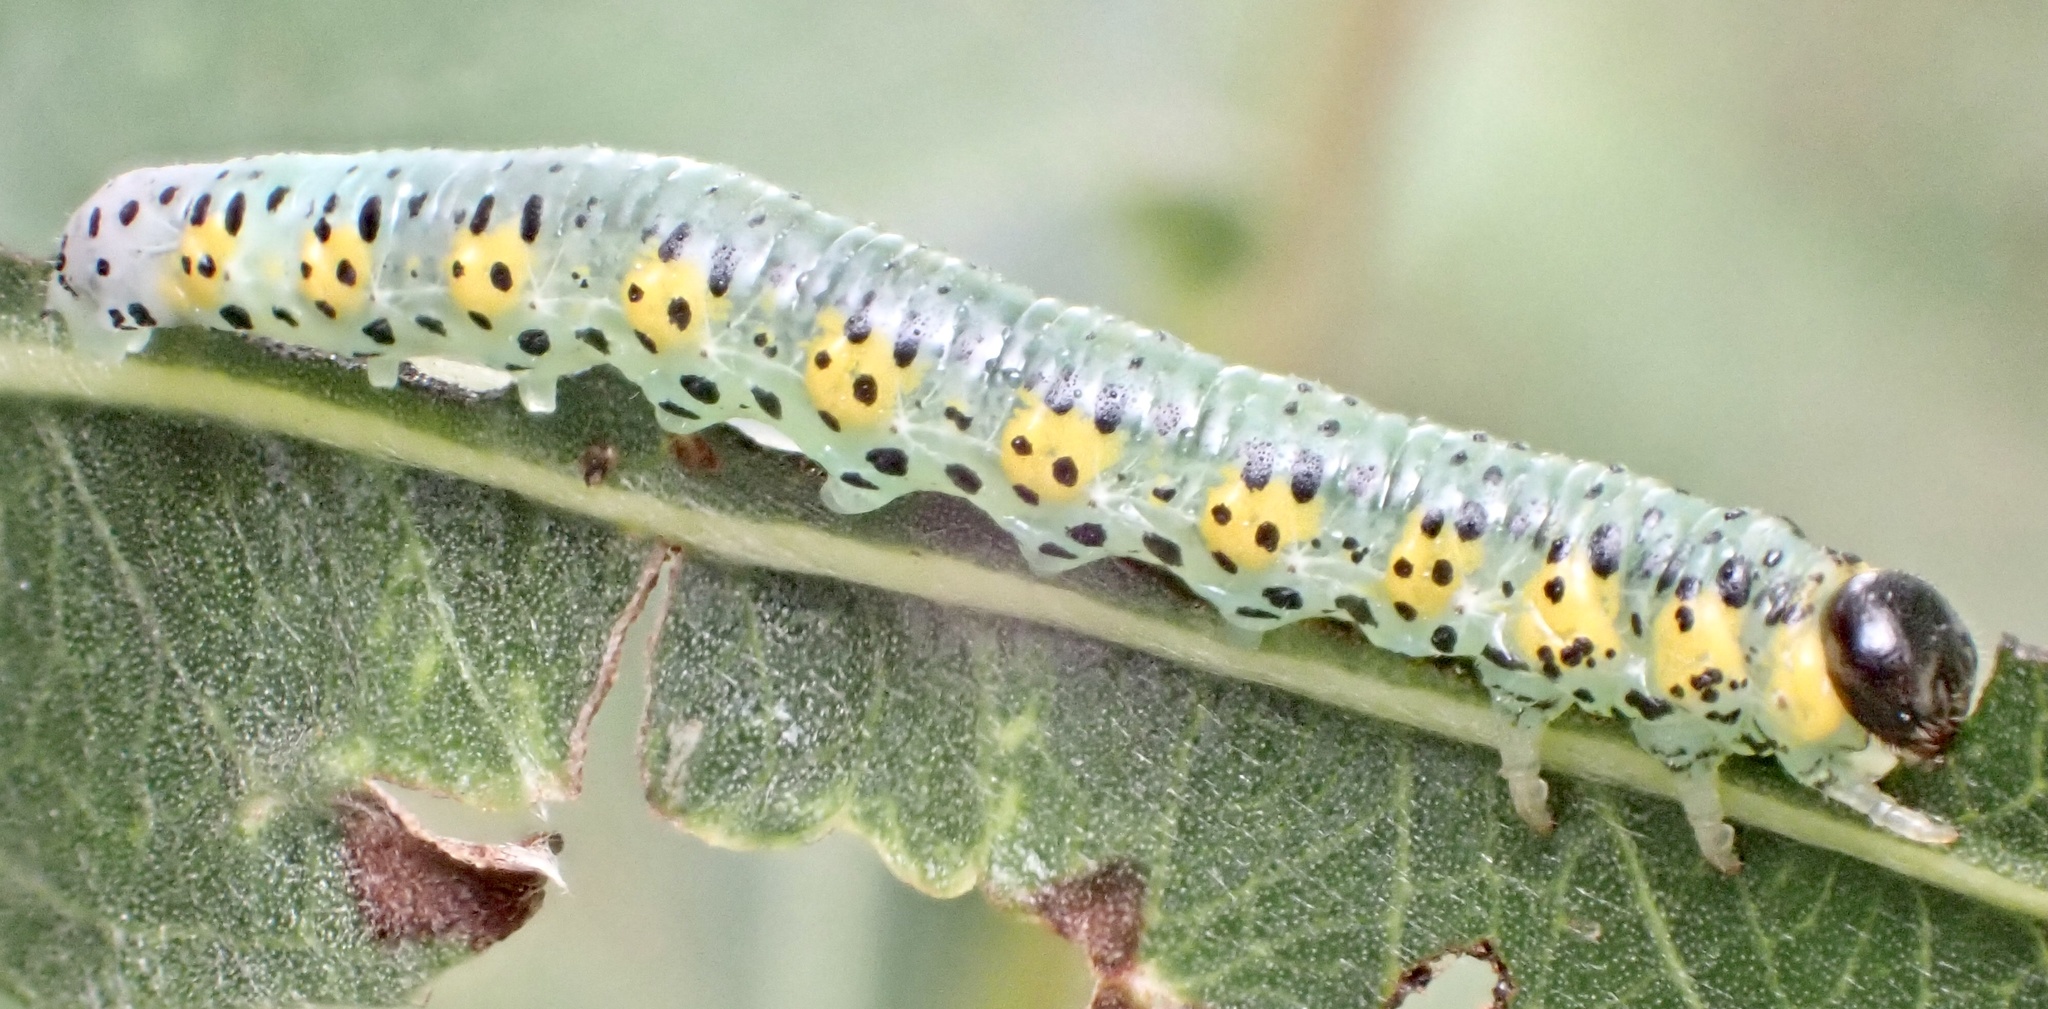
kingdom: Animalia
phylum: Arthropoda
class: Insecta
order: Hymenoptera
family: Tenthredinidae
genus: Euura
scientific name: Euura melanocephalus
